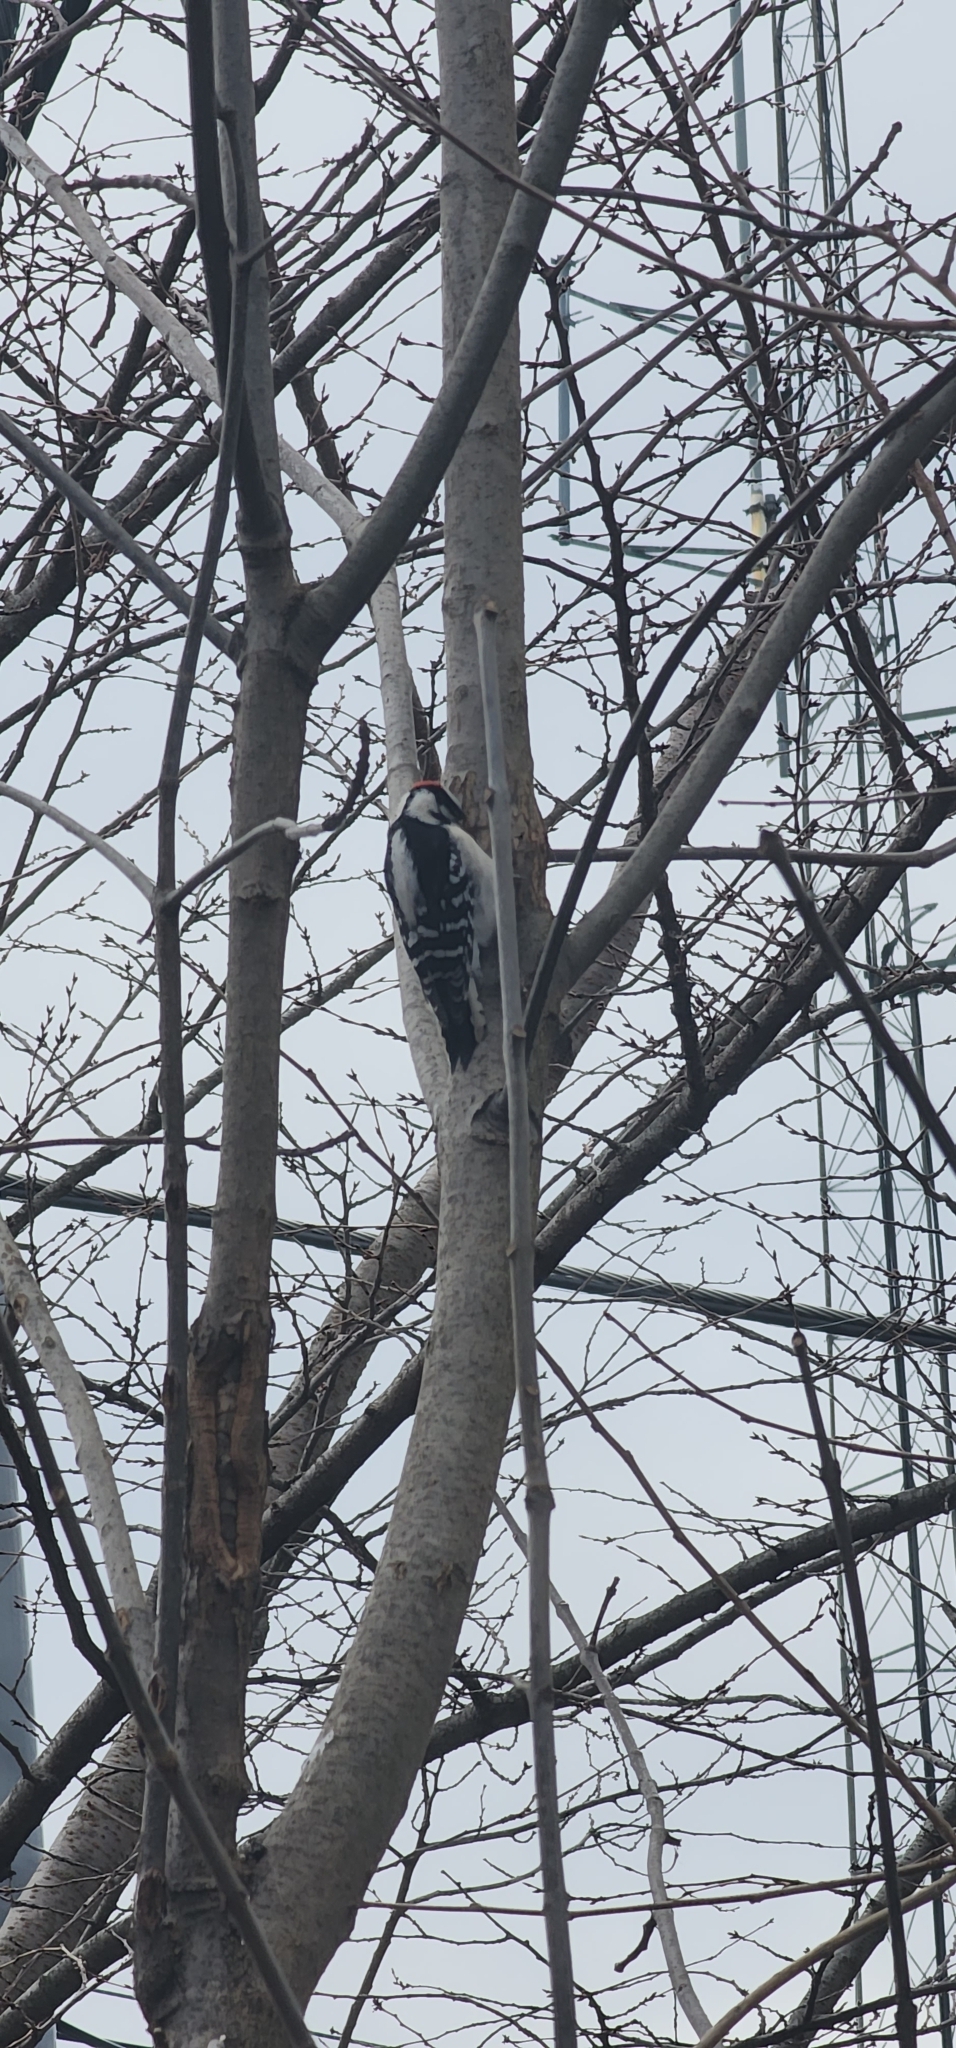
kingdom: Animalia
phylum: Chordata
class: Aves
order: Piciformes
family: Picidae
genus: Dryobates
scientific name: Dryobates pubescens
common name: Downy woodpecker
